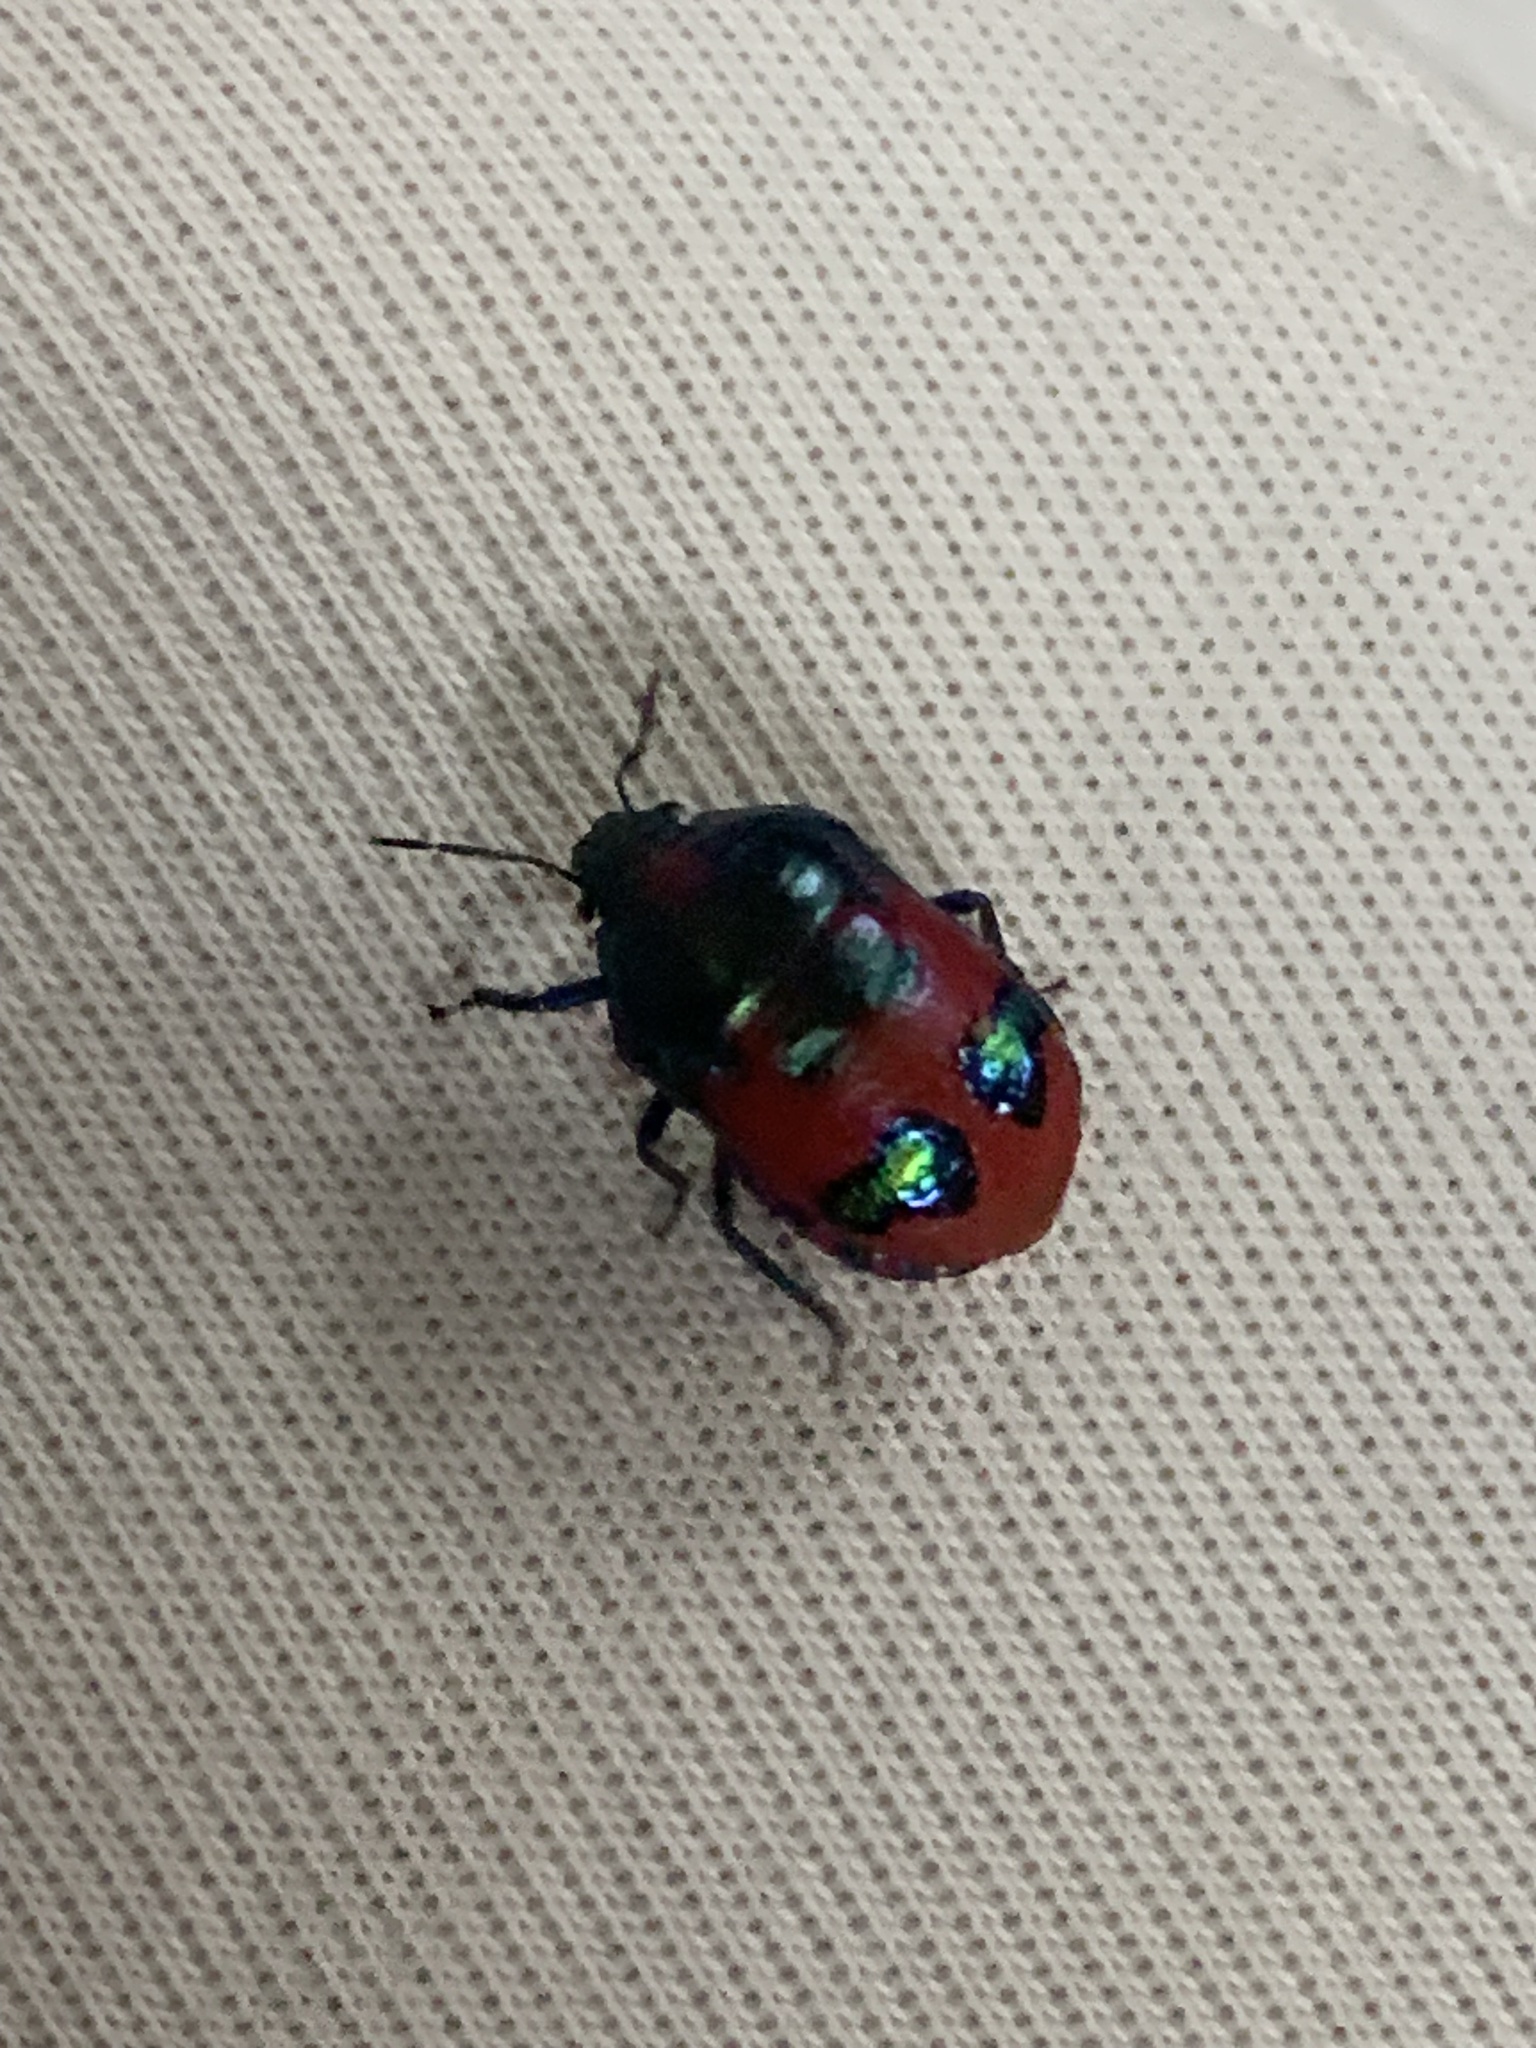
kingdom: Animalia
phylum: Arthropoda
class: Insecta
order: Hemiptera
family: Scutelleridae
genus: Choerocoris
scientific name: Choerocoris paganus
